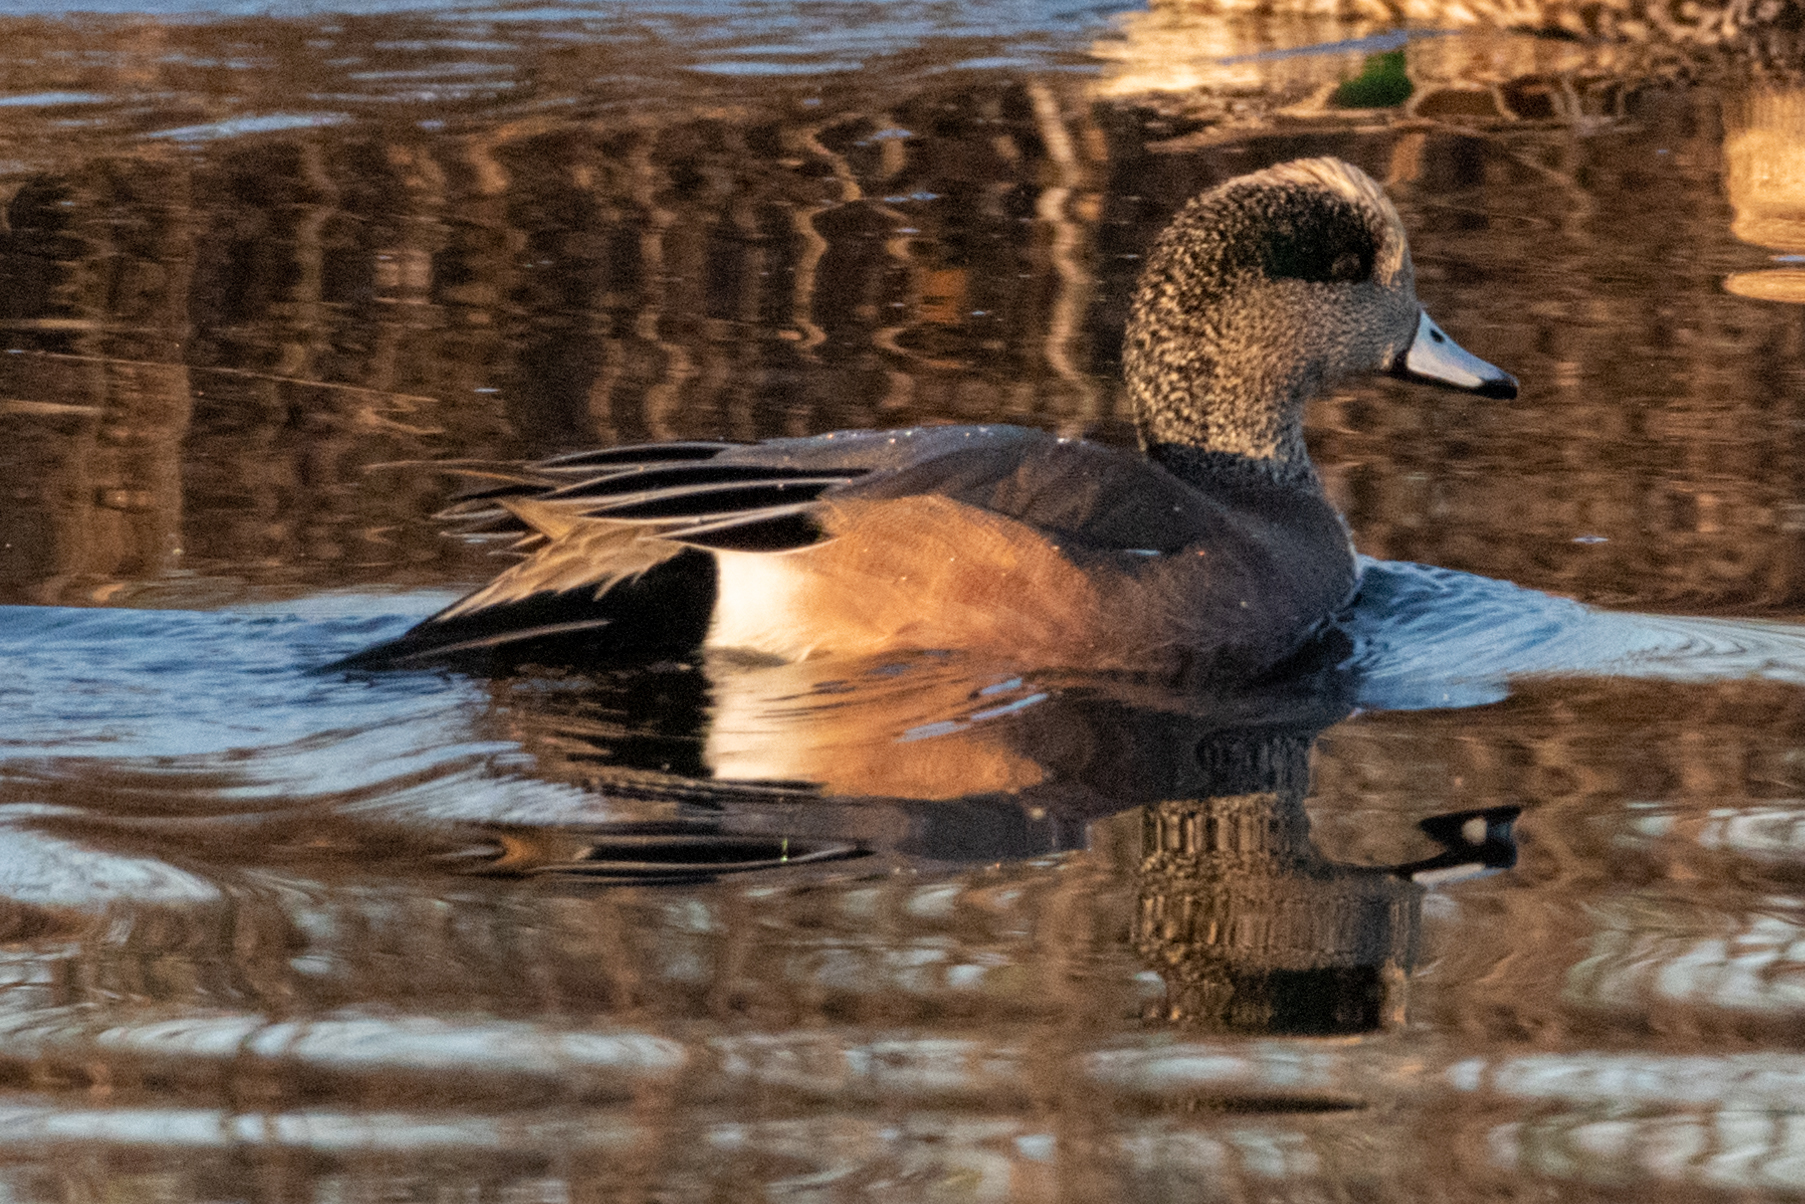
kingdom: Animalia
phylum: Chordata
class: Aves
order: Anseriformes
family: Anatidae
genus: Mareca
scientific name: Mareca americana
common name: American wigeon
